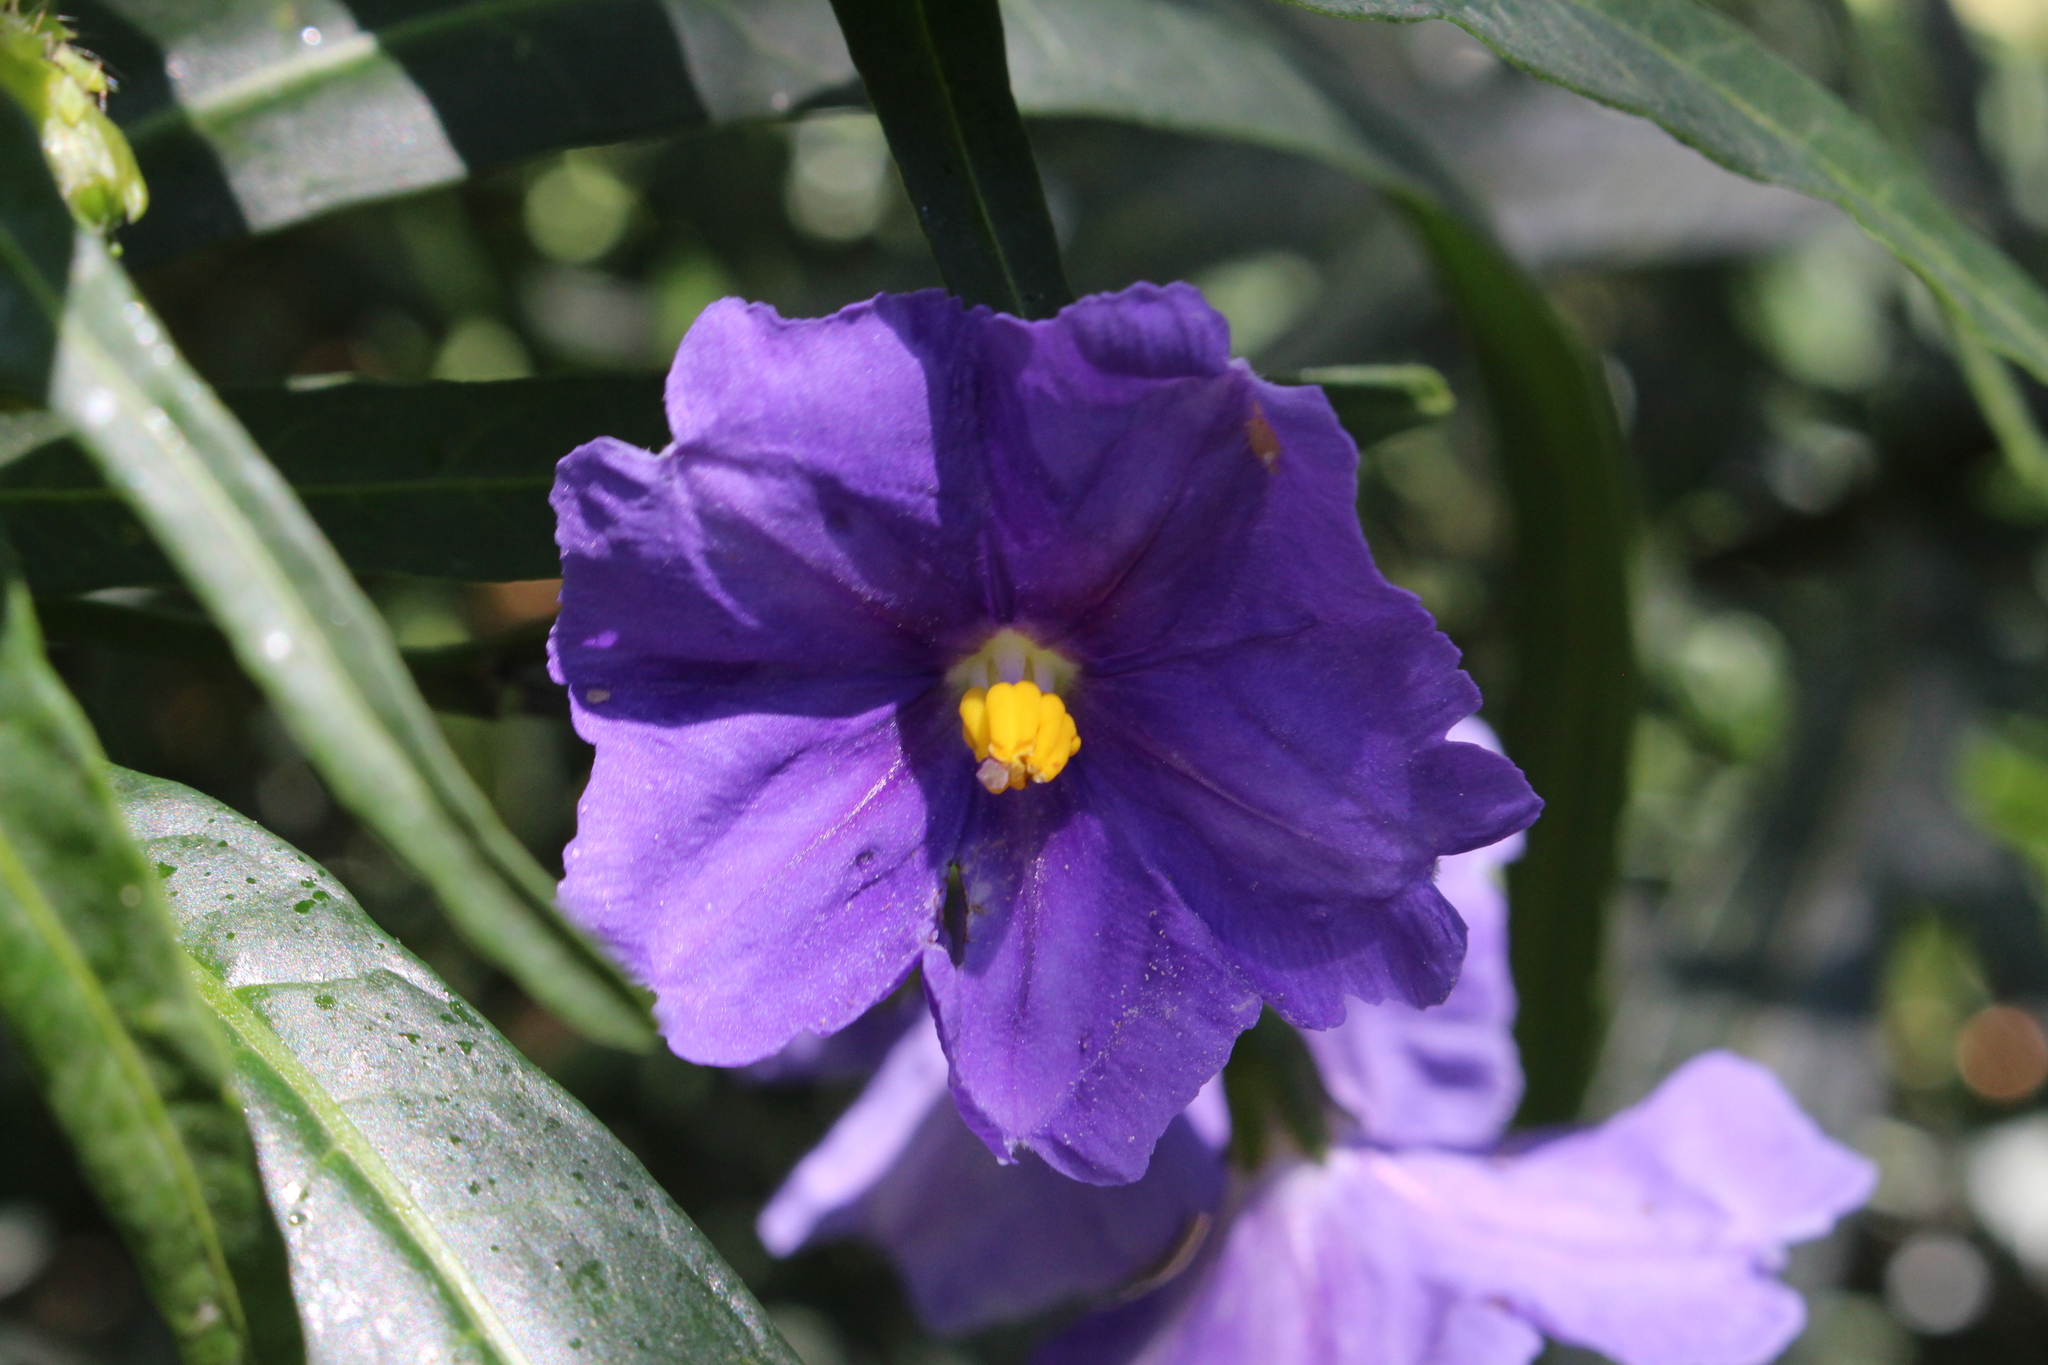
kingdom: Plantae
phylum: Tracheophyta
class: Magnoliopsida
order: Solanales
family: Solanaceae
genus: Solanum
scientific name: Solanum laciniatum
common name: Kangaroo-apple
